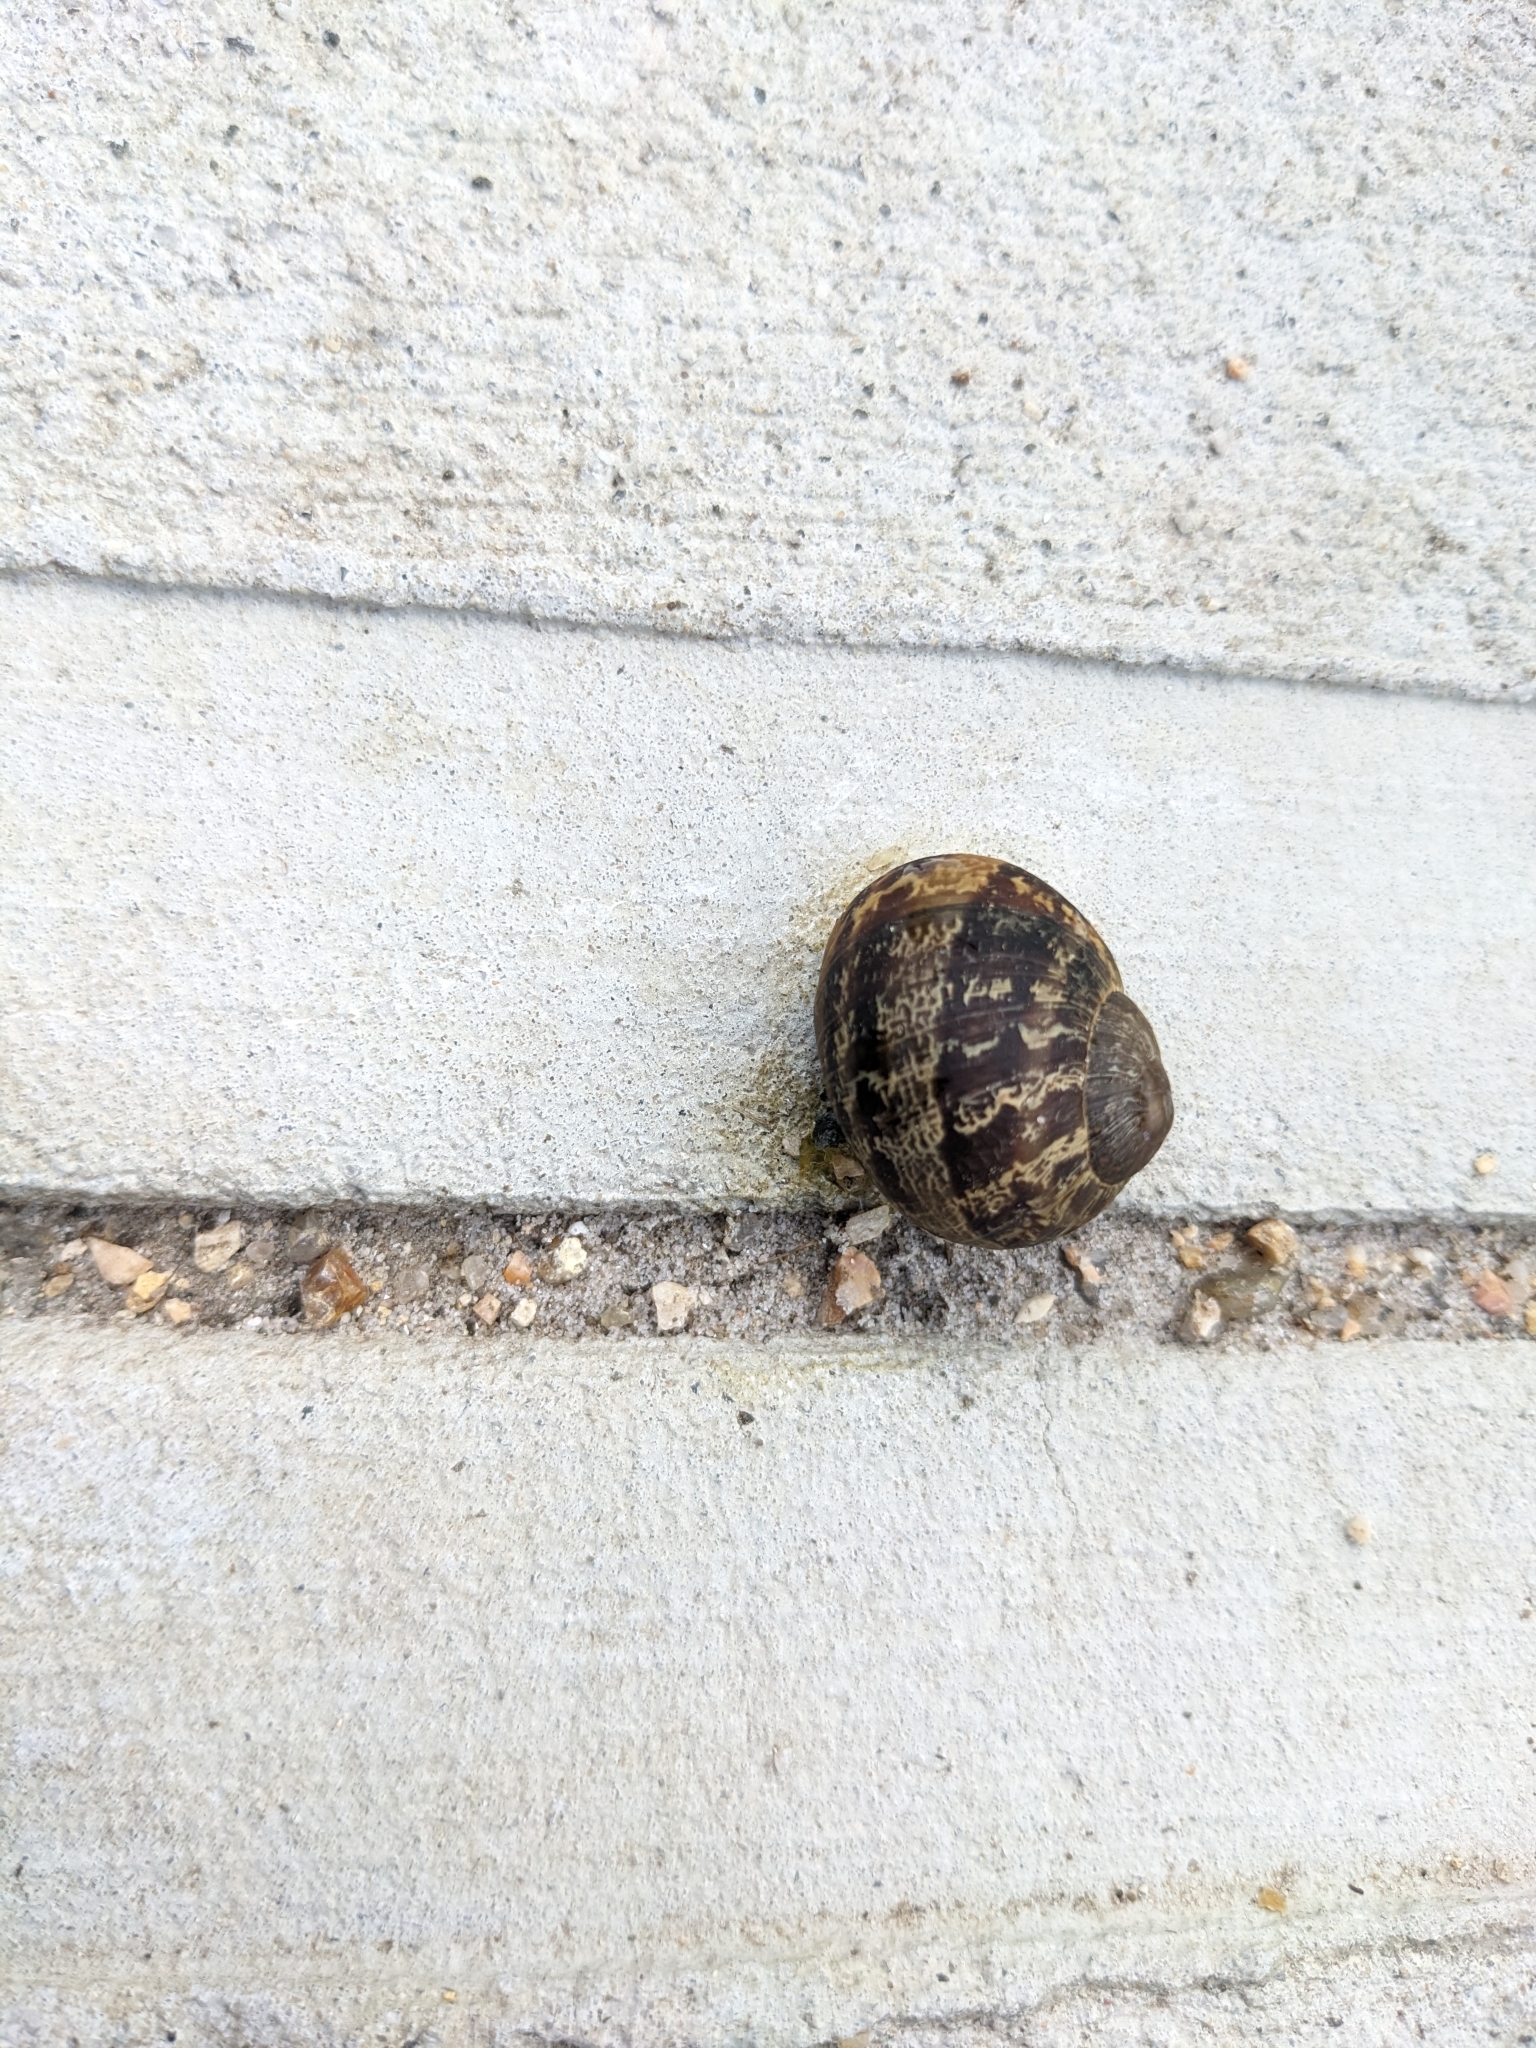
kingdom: Animalia
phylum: Mollusca
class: Gastropoda
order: Stylommatophora
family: Helicidae
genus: Cornu
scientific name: Cornu aspersum
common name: Brown garden snail
